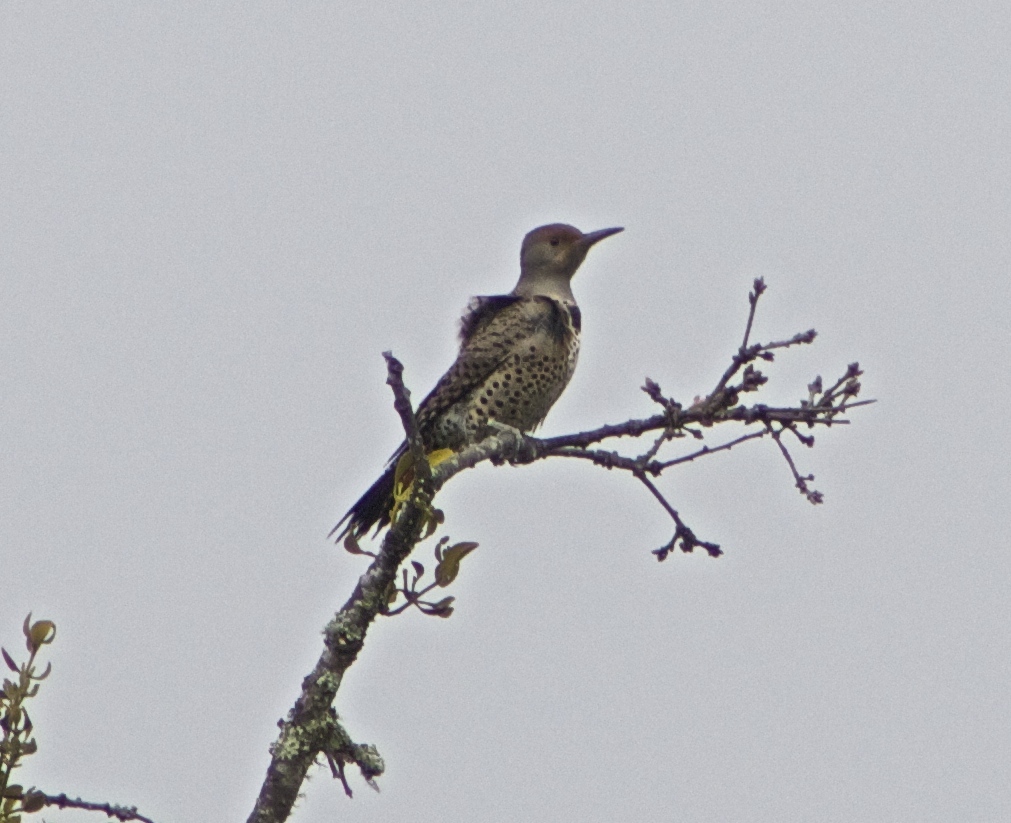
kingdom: Animalia
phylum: Chordata
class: Aves
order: Piciformes
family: Picidae
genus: Colaptes
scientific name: Colaptes auratus
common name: Northern flicker
